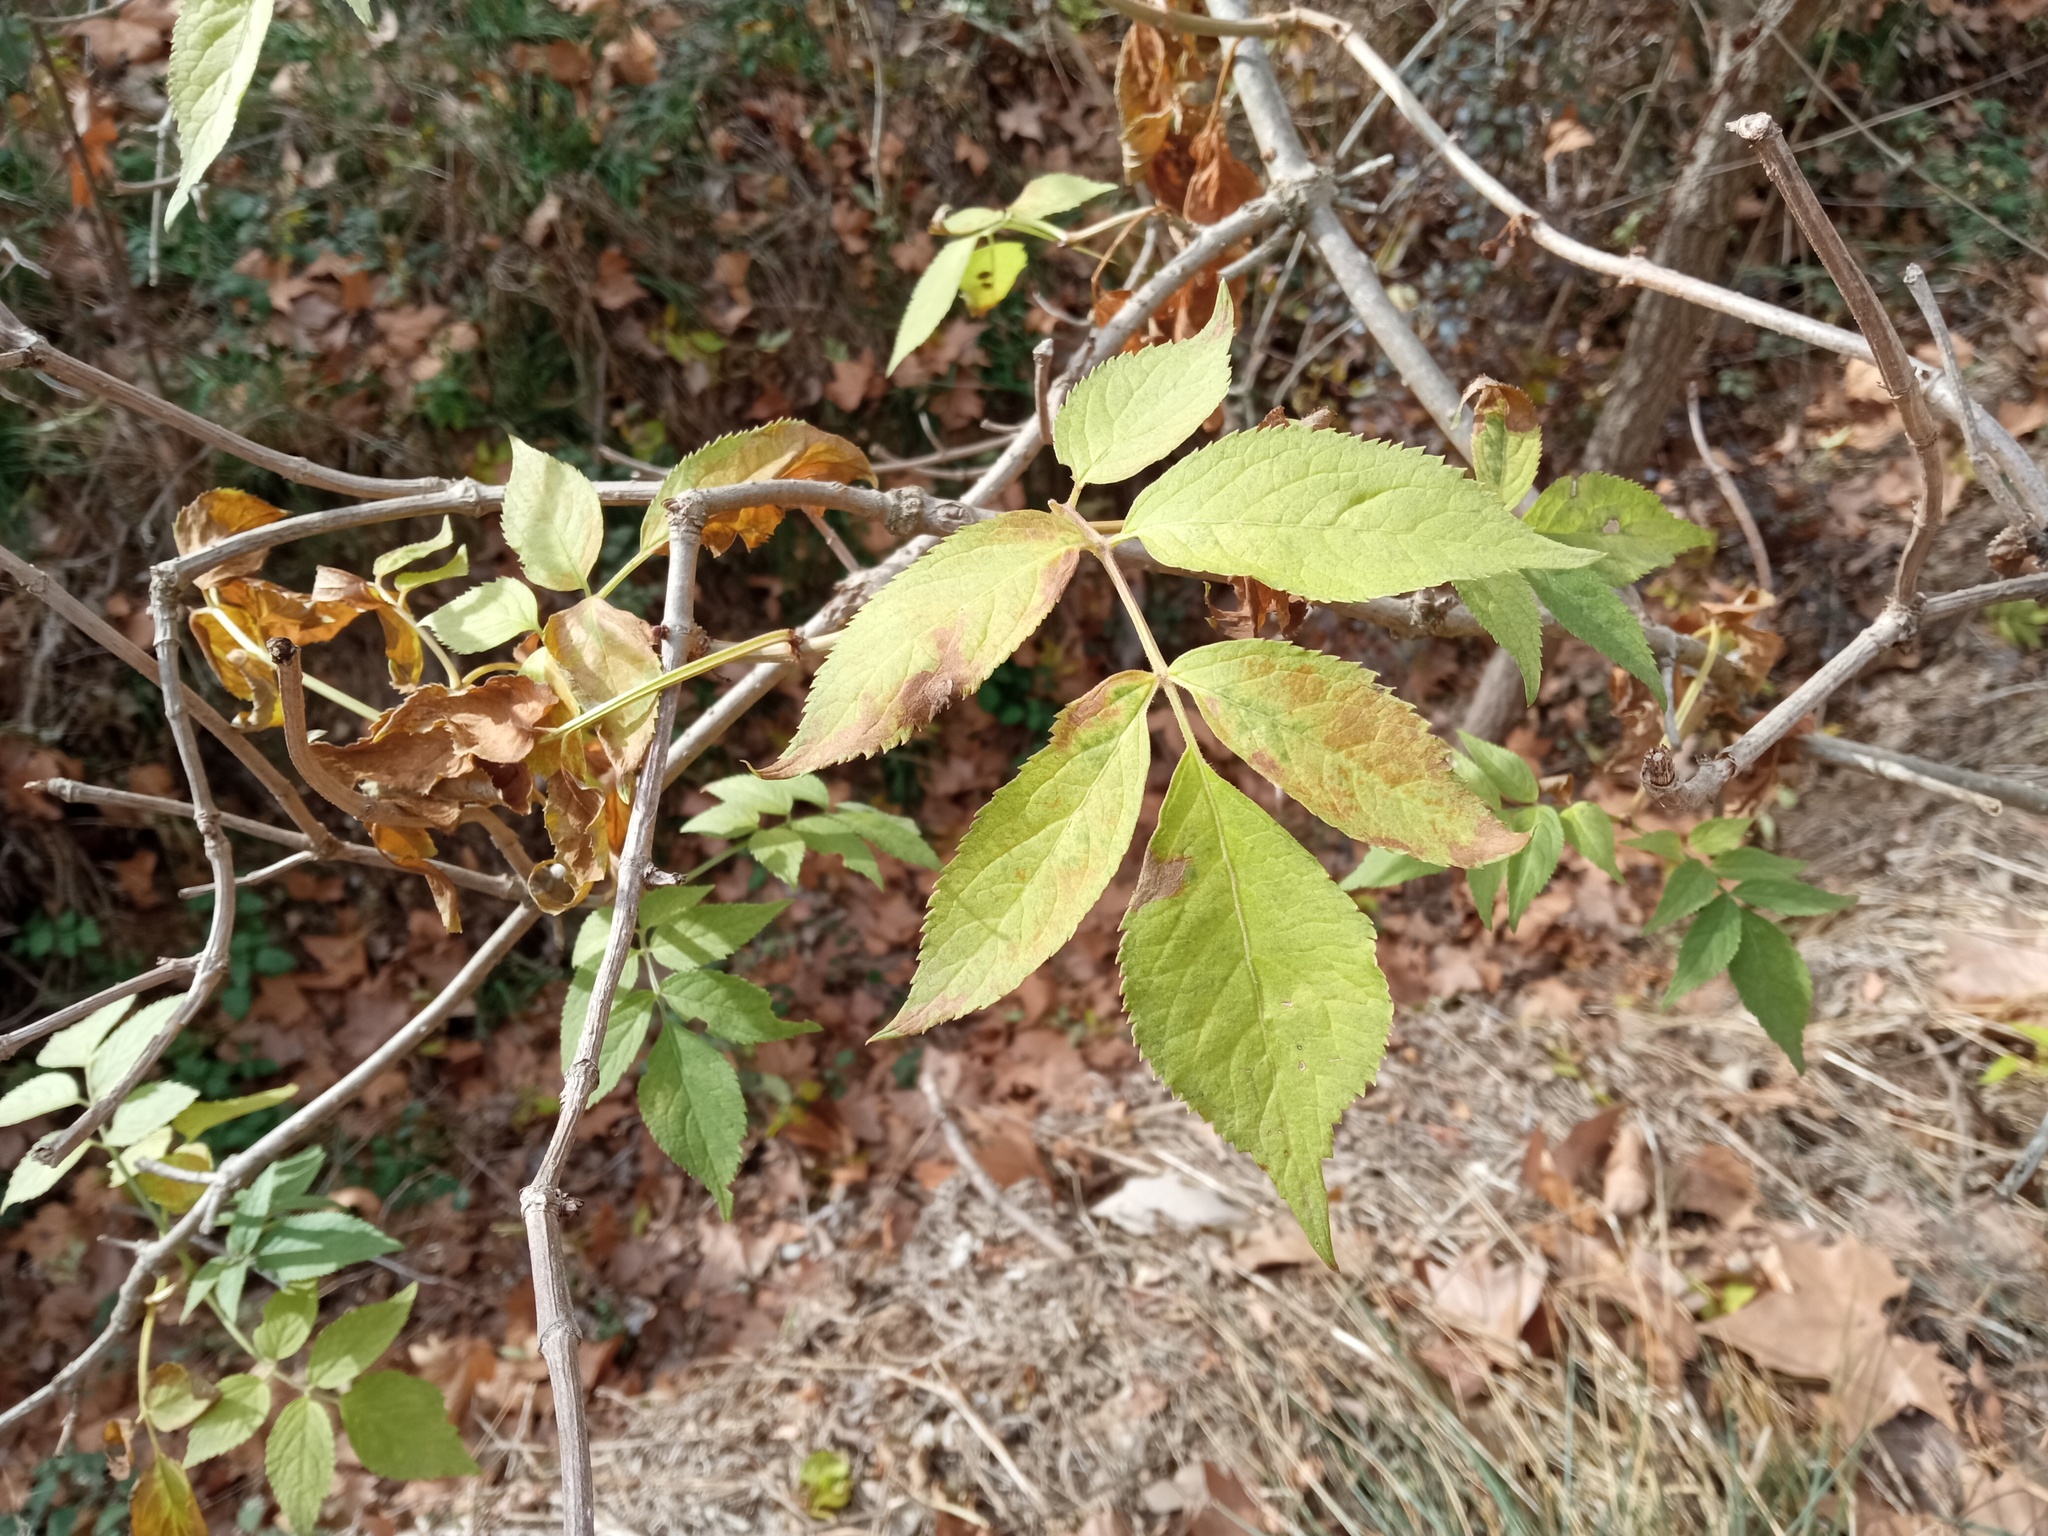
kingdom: Plantae
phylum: Tracheophyta
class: Magnoliopsida
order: Dipsacales
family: Viburnaceae
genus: Sambucus
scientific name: Sambucus nigra
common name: Elder
